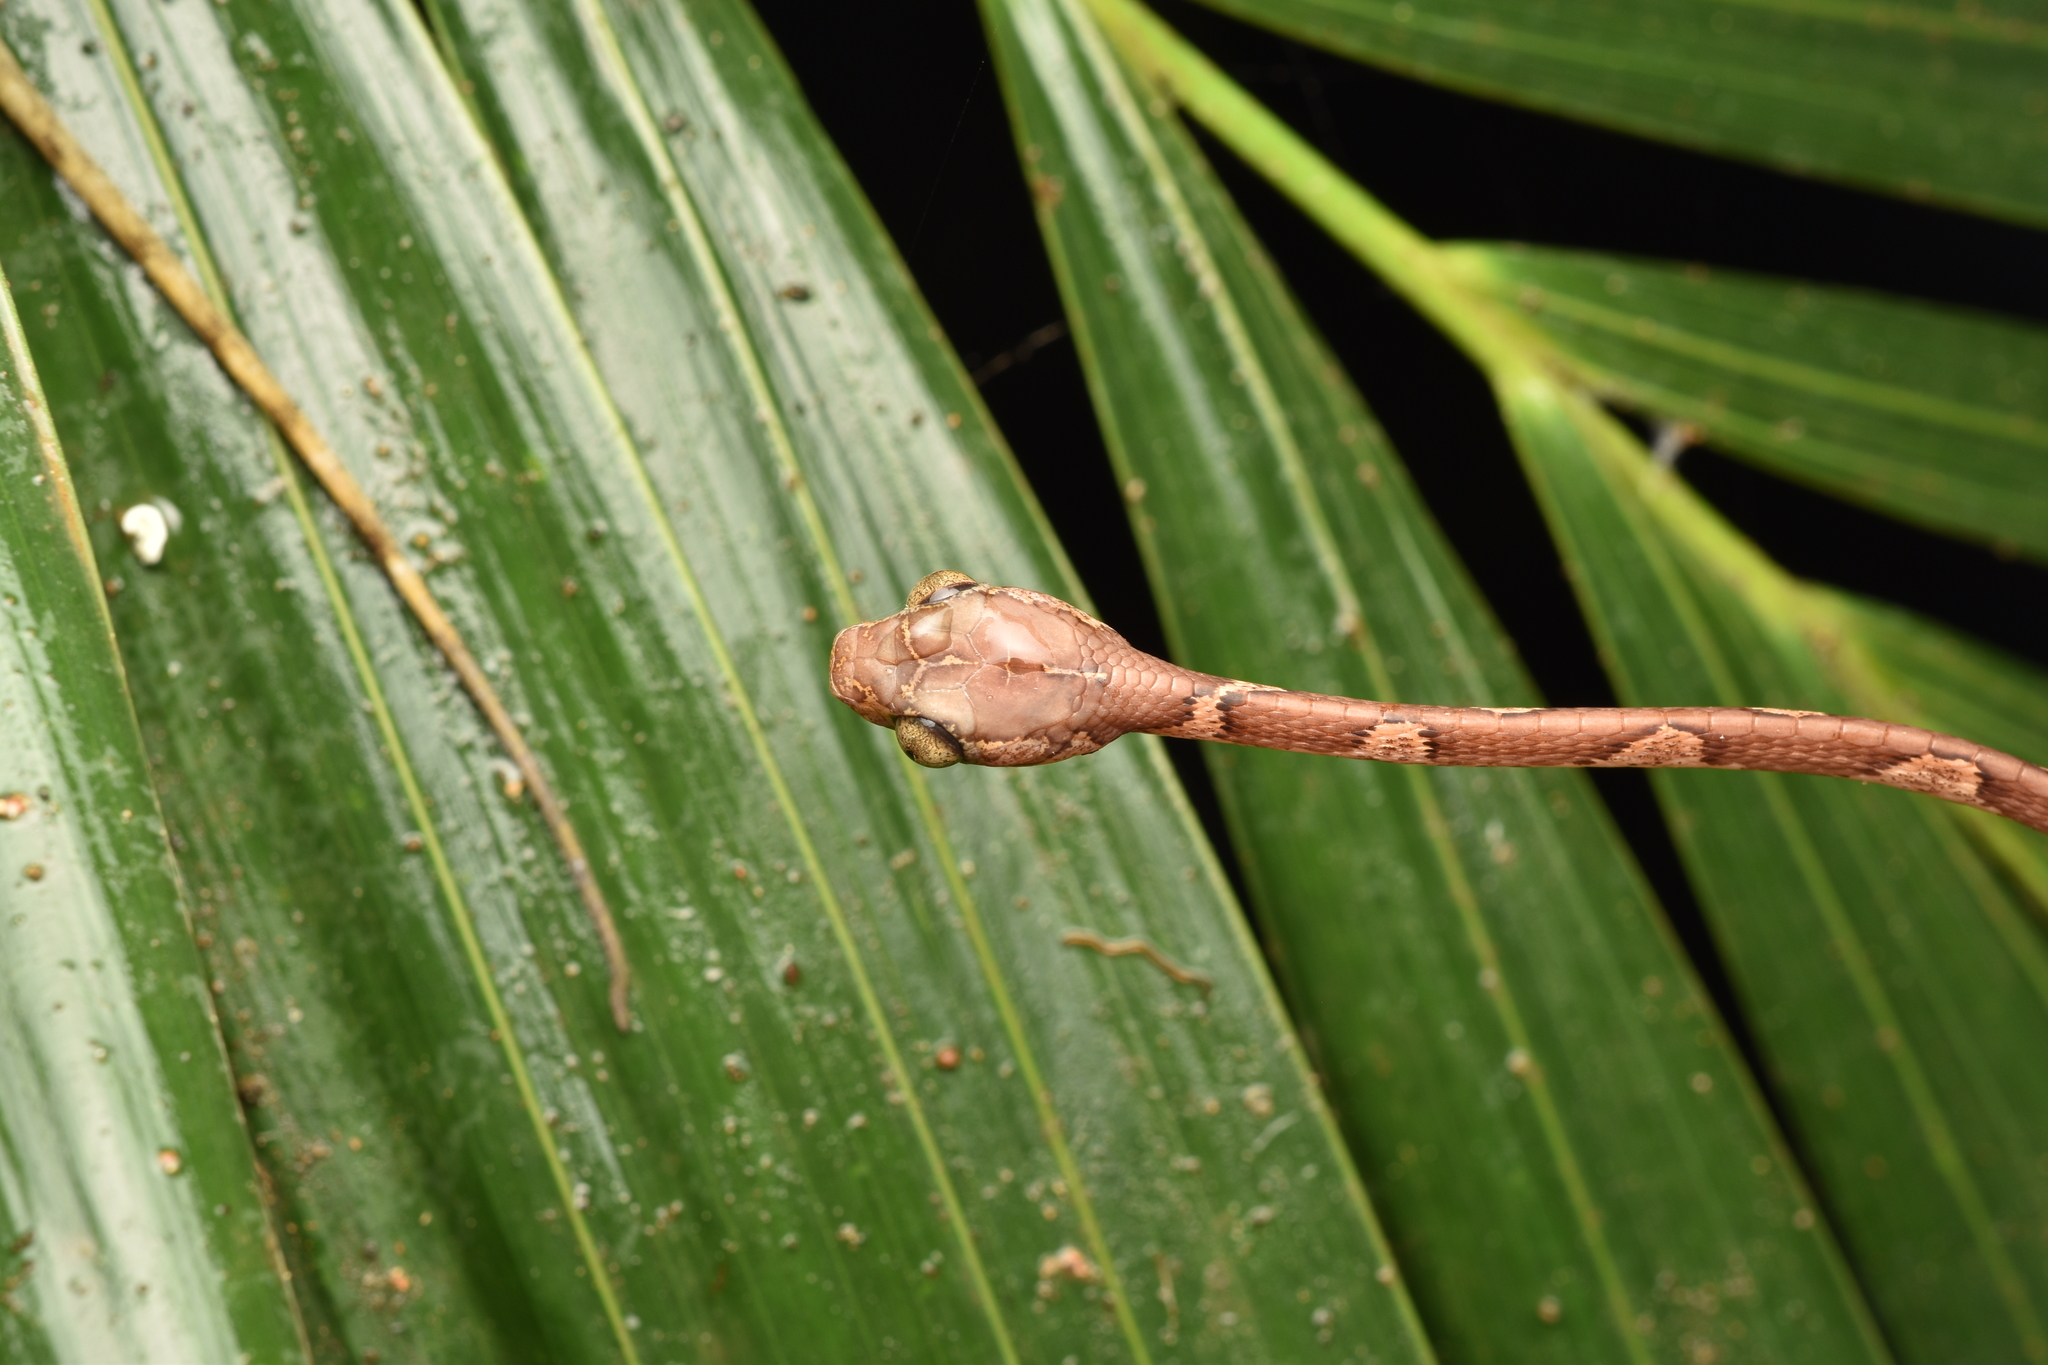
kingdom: Animalia
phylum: Chordata
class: Squamata
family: Colubridae
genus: Imantodes
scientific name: Imantodes cenchoa
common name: Blunthead tree snake
